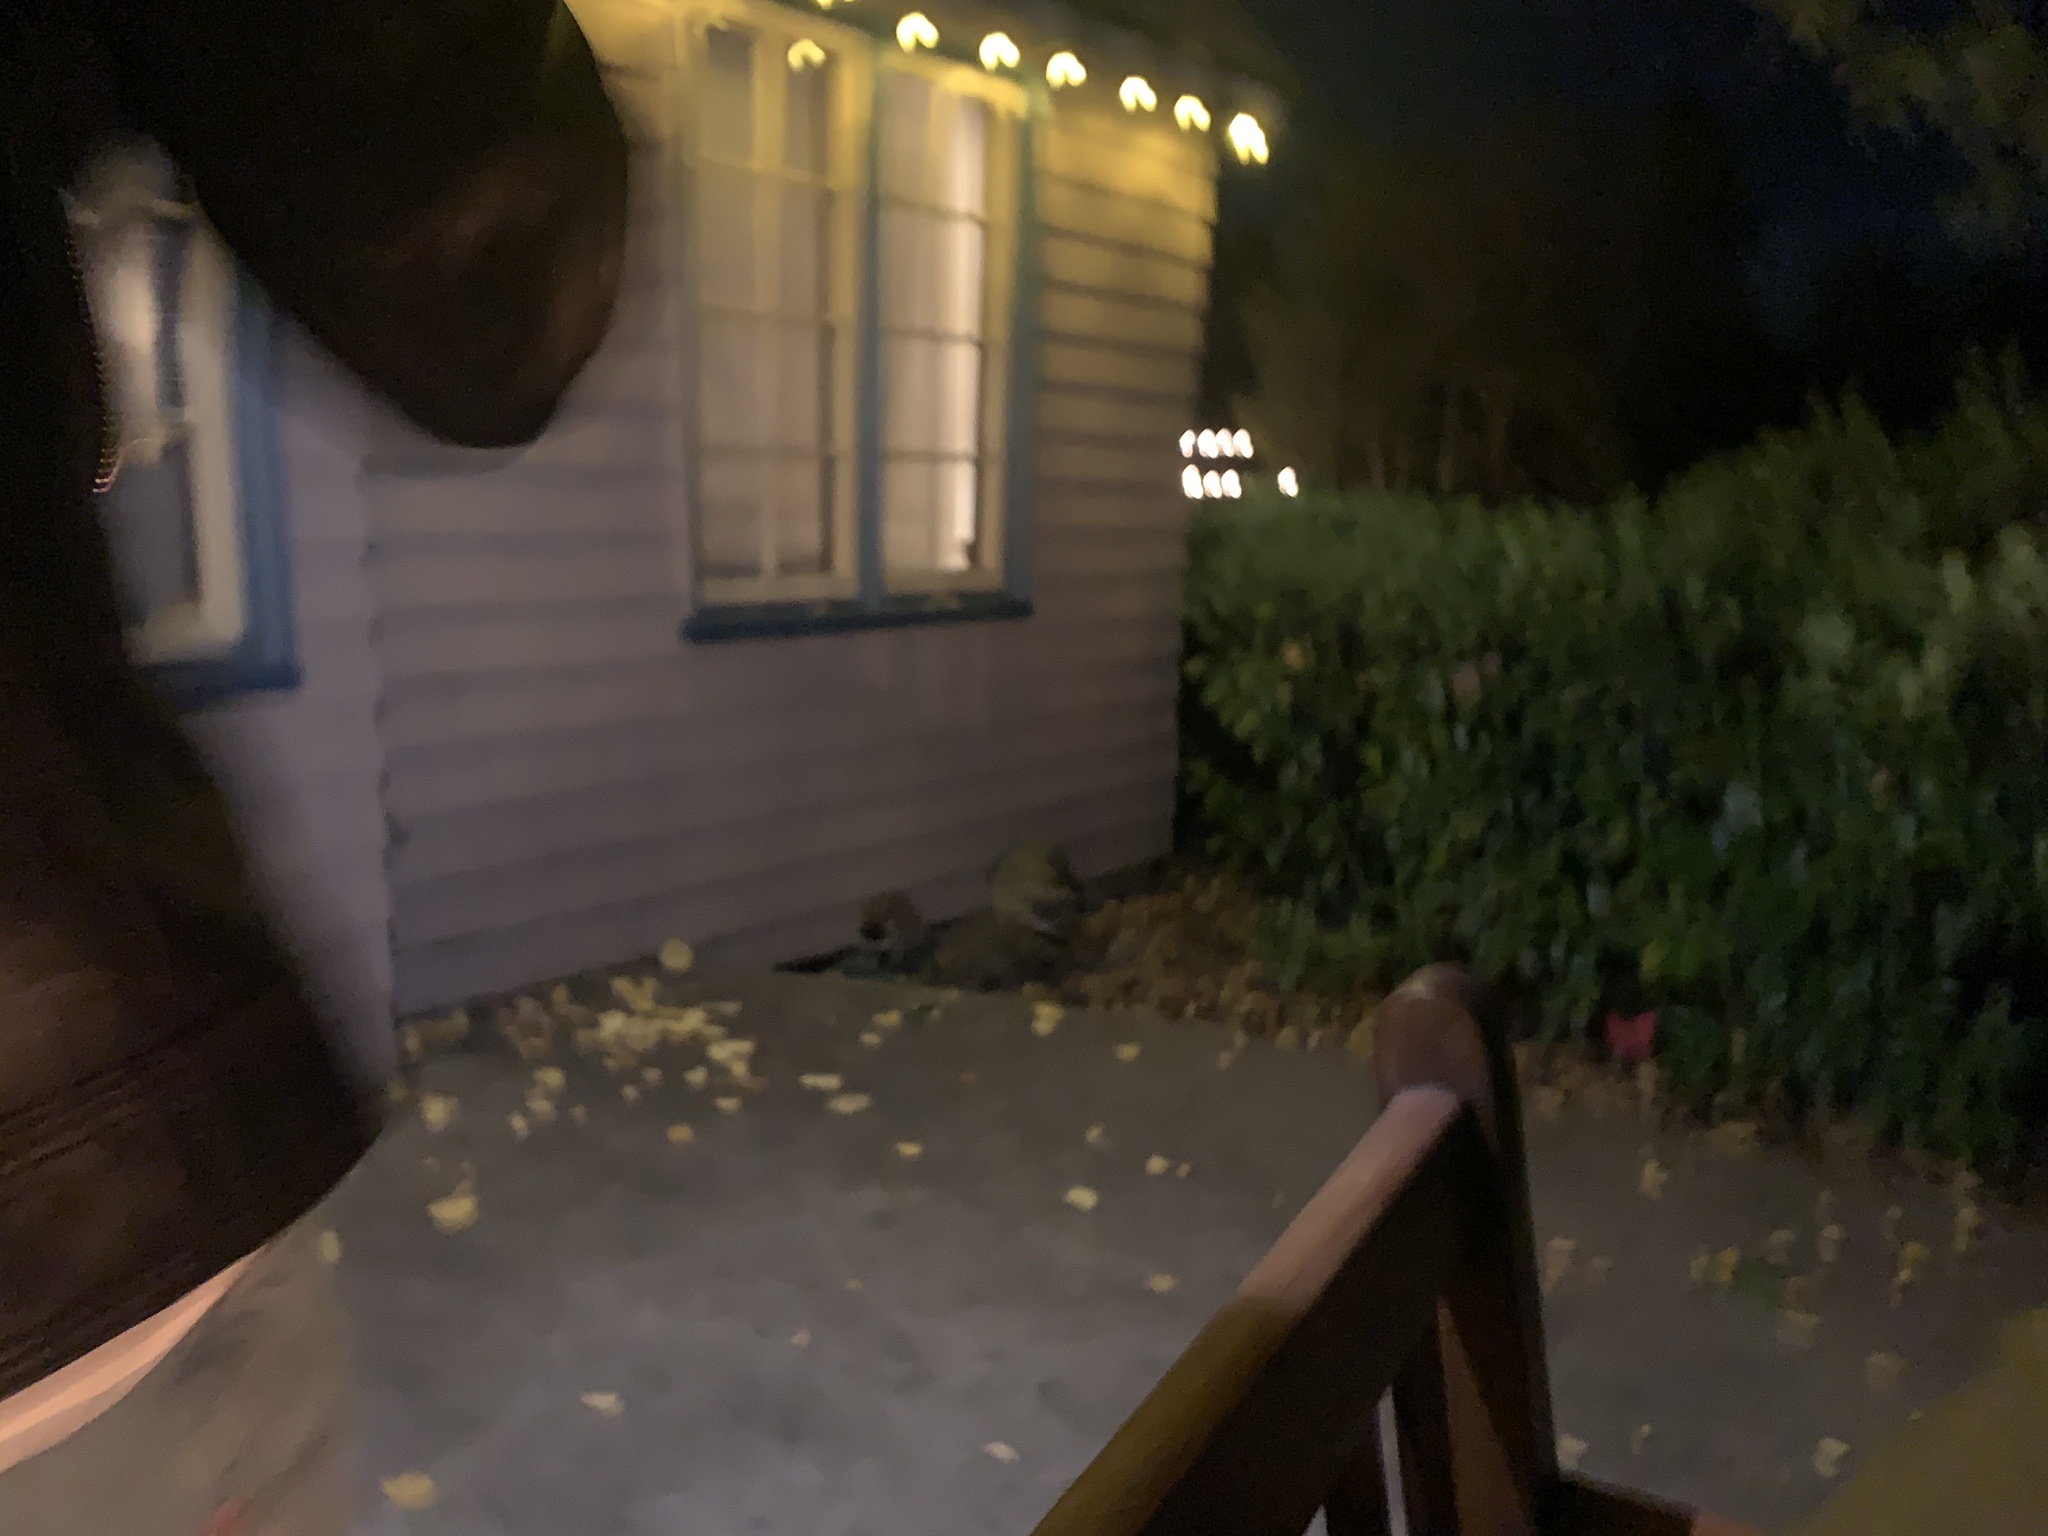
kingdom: Animalia
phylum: Chordata
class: Mammalia
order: Carnivora
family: Procyonidae
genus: Procyon
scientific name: Procyon lotor
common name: Raccoon
